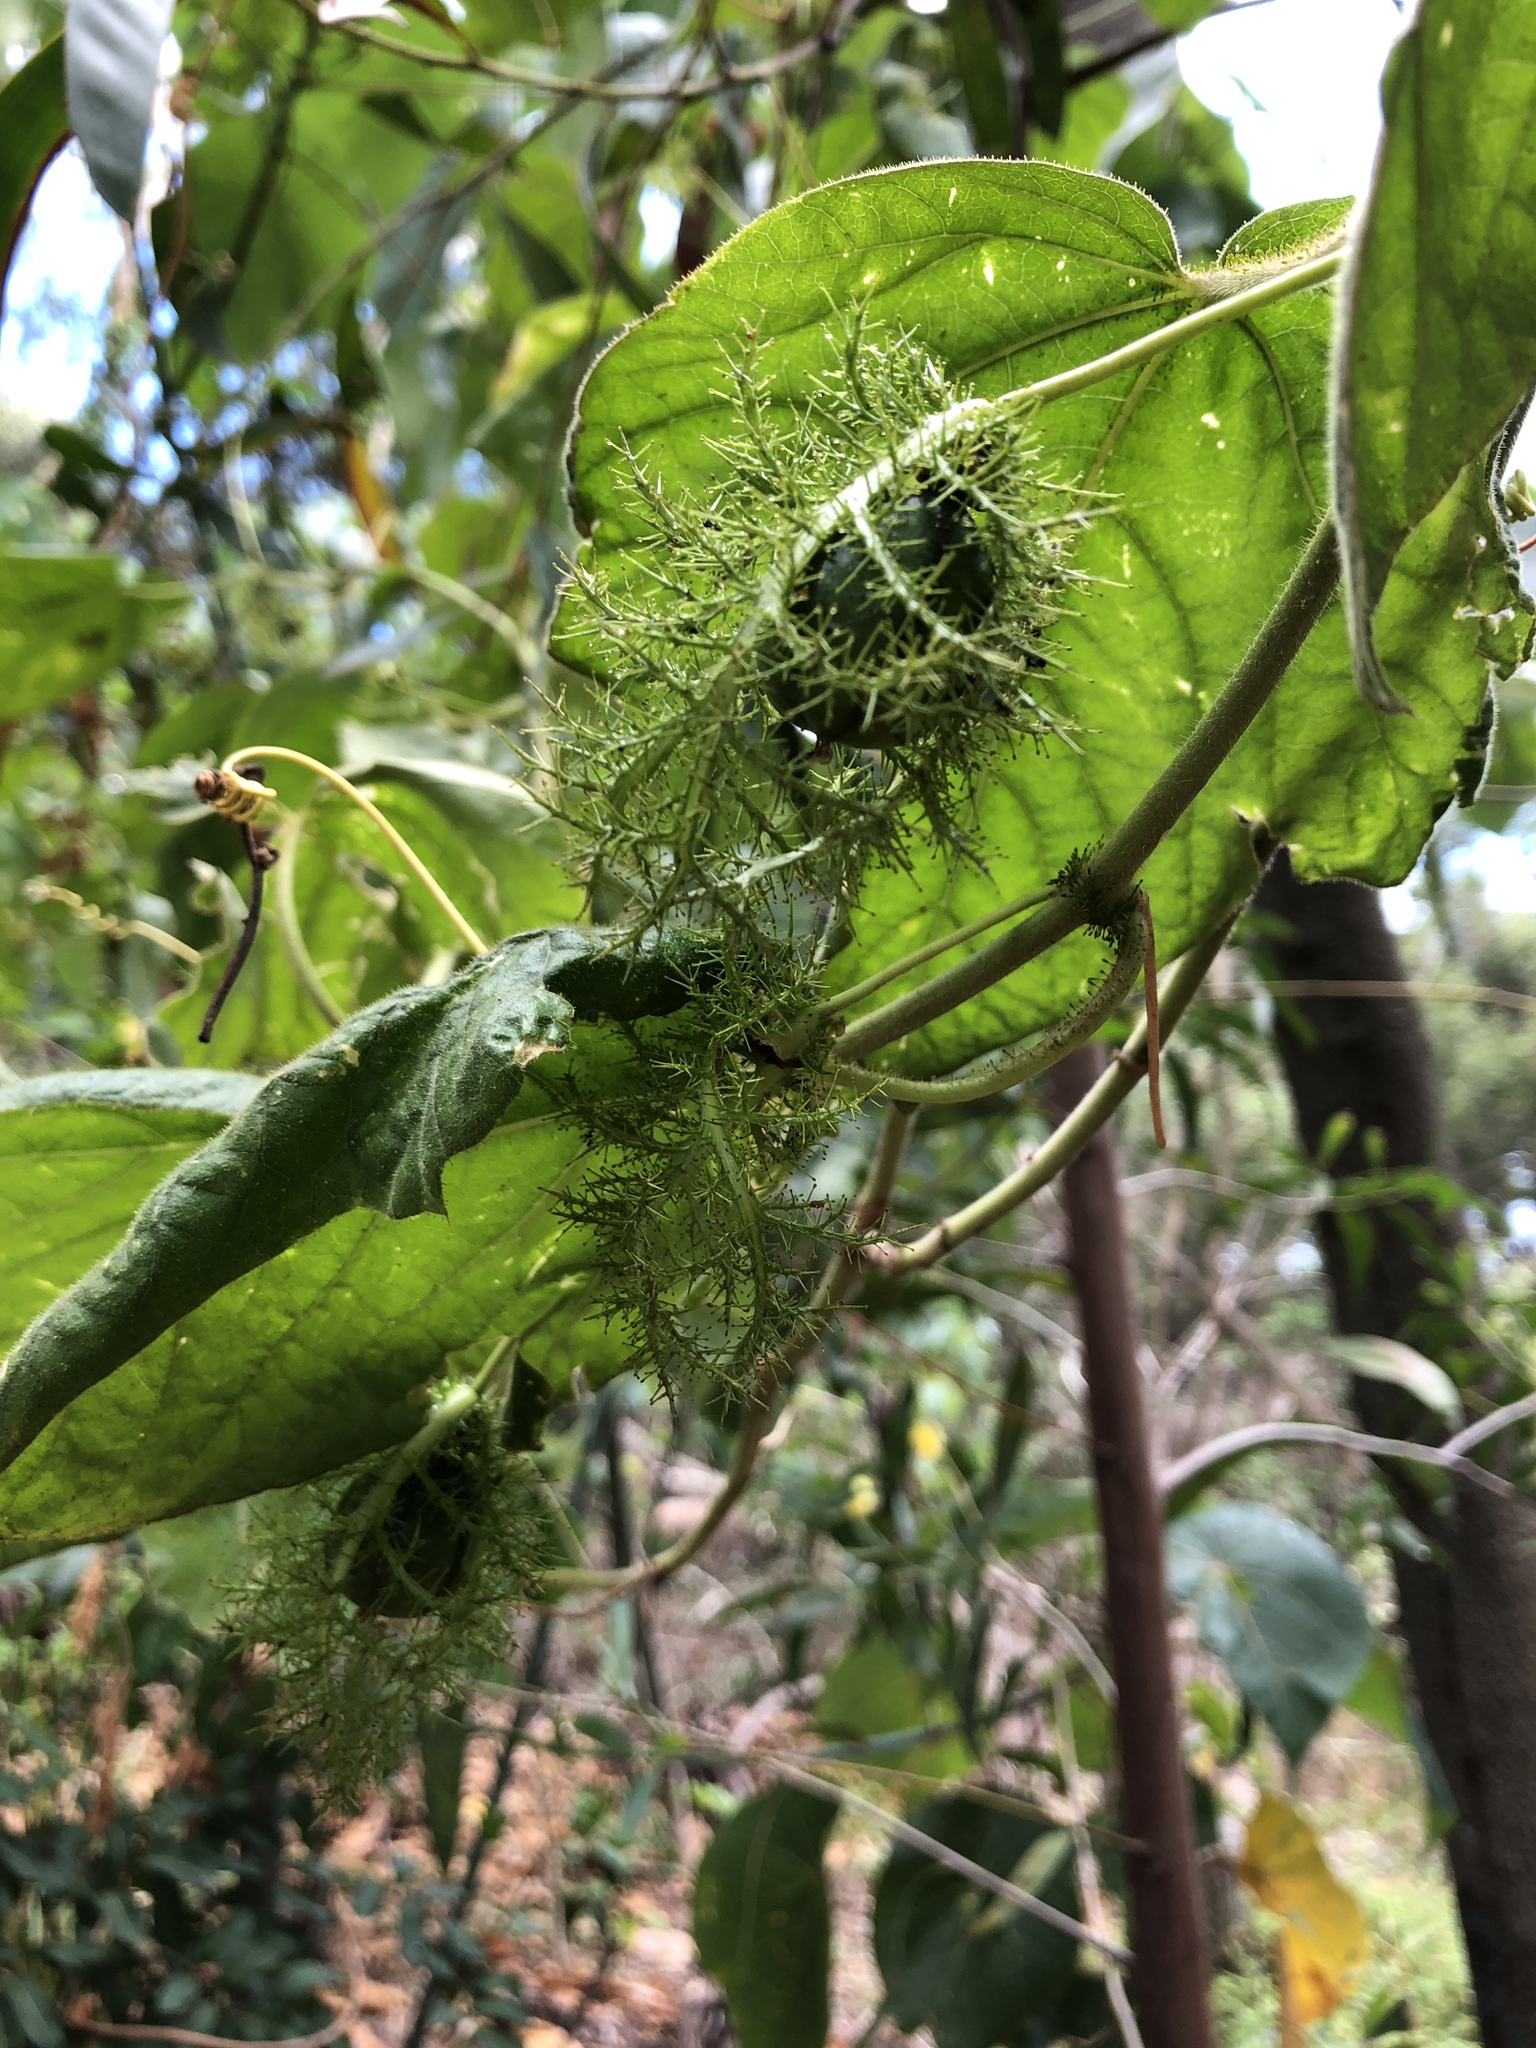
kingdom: Plantae
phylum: Tracheophyta
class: Magnoliopsida
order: Malpighiales
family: Passifloraceae
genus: Passiflora
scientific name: Passiflora foetida
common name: Fetid passionflower
